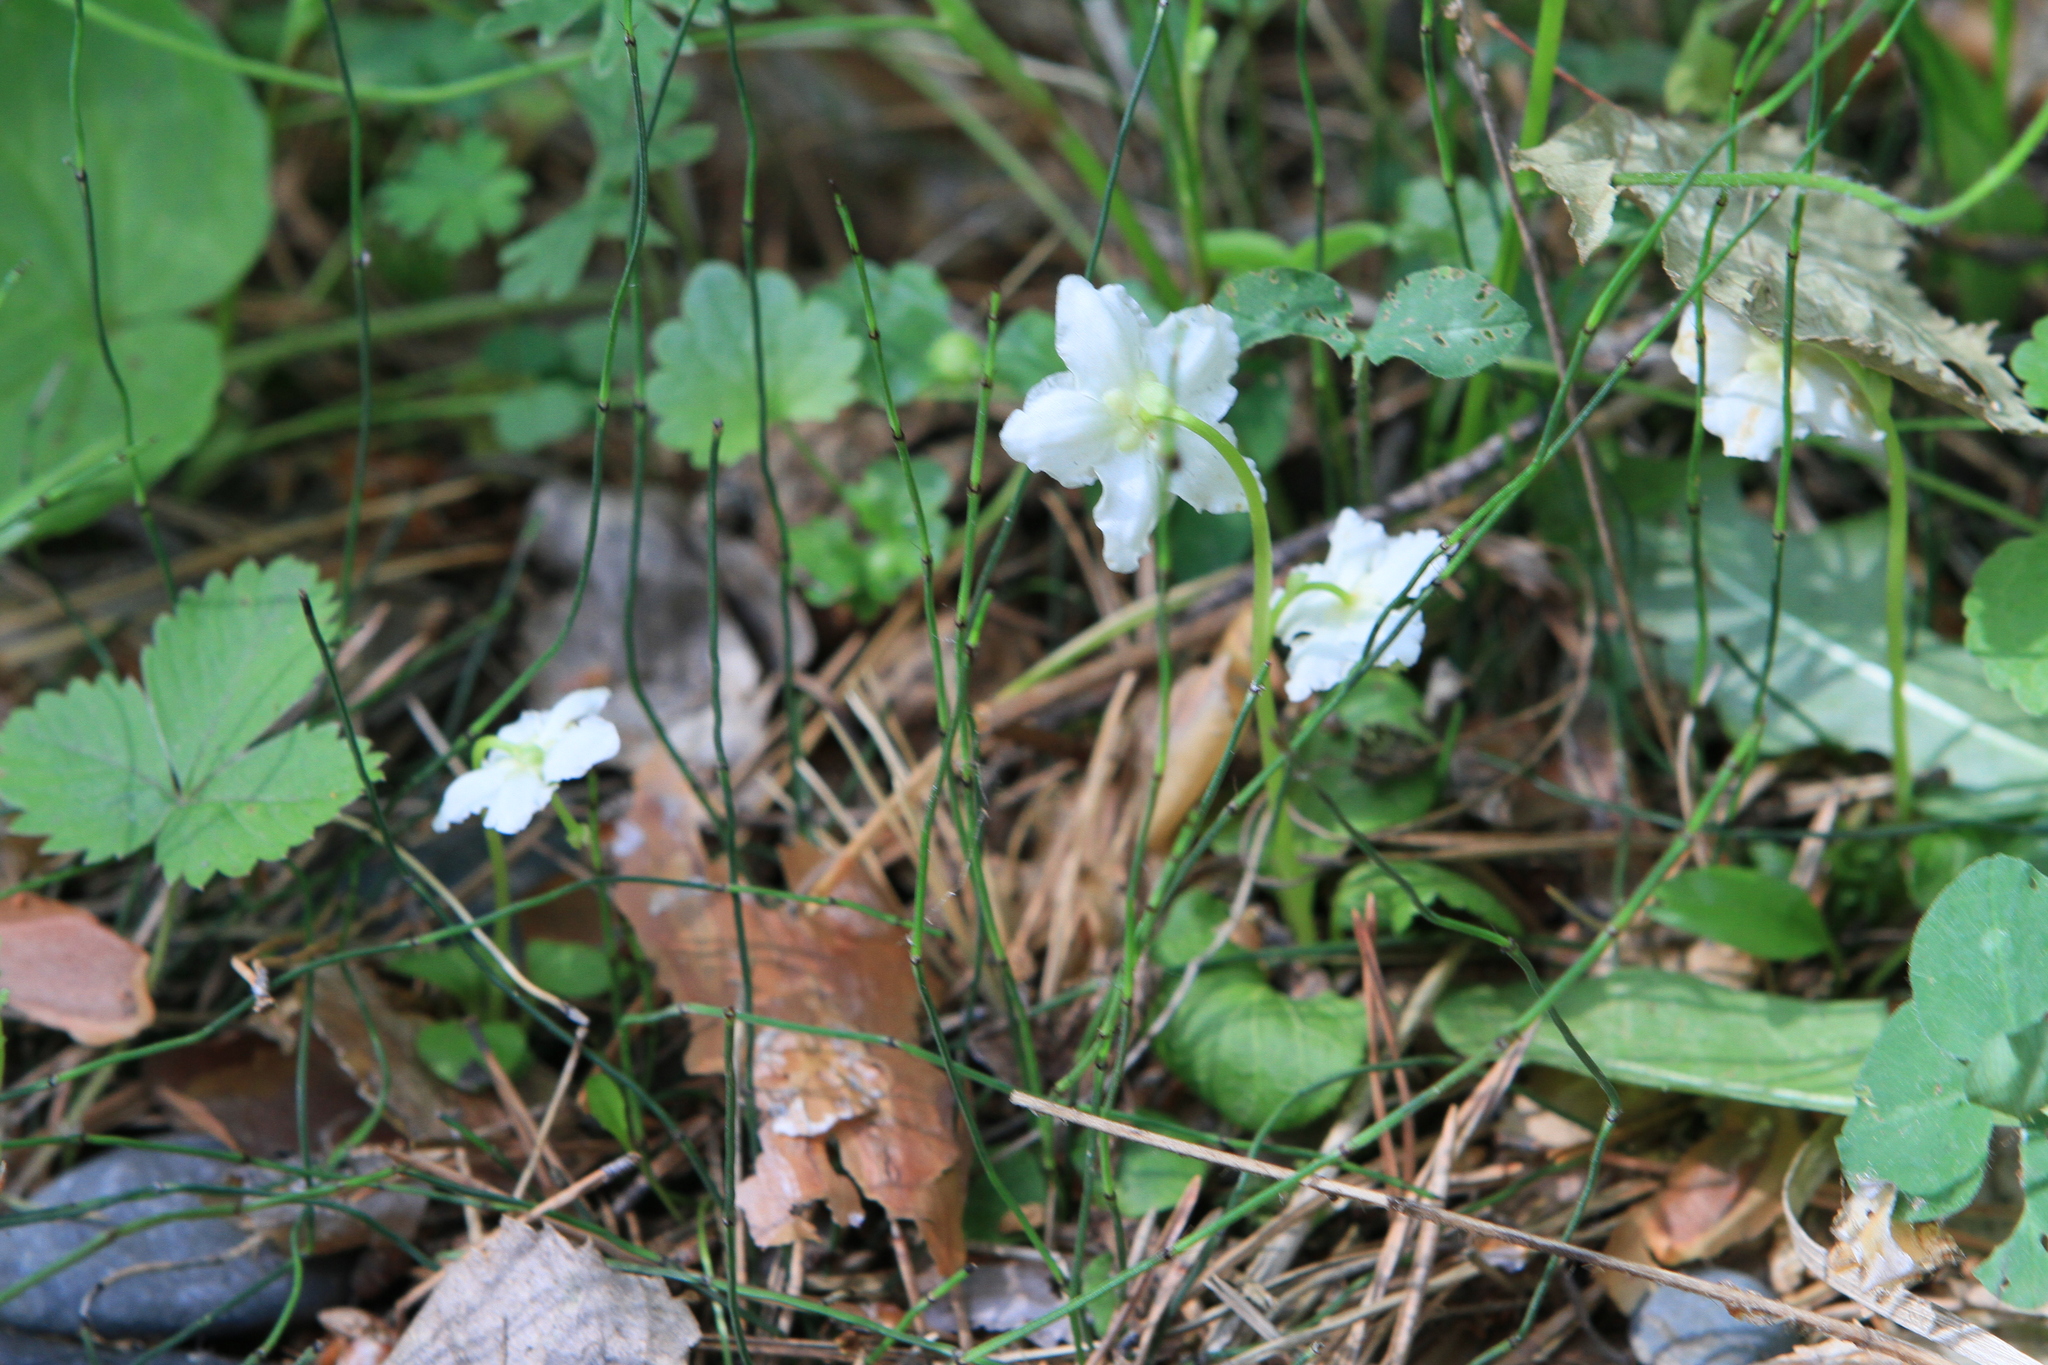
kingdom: Plantae
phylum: Tracheophyta
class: Magnoliopsida
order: Ericales
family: Ericaceae
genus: Moneses
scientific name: Moneses uniflora
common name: One-flowered wintergreen
